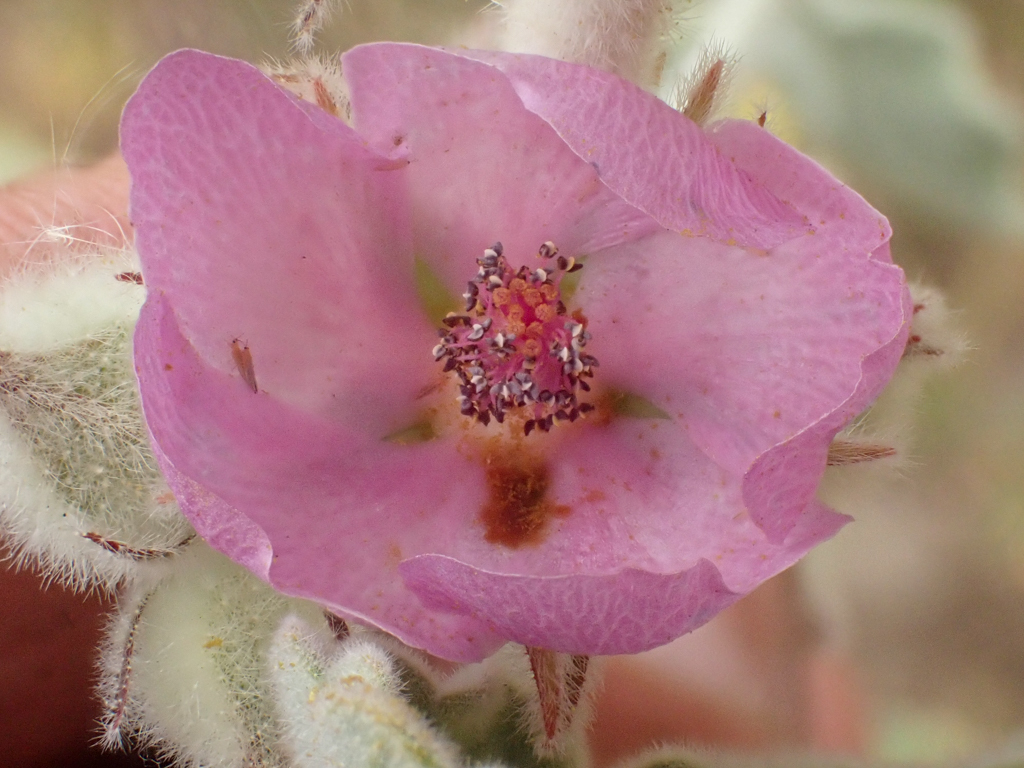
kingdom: Plantae
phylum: Tracheophyta
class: Magnoliopsida
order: Malvales
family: Malvaceae
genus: Malacothamnus
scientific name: Malacothamnus fremontii
